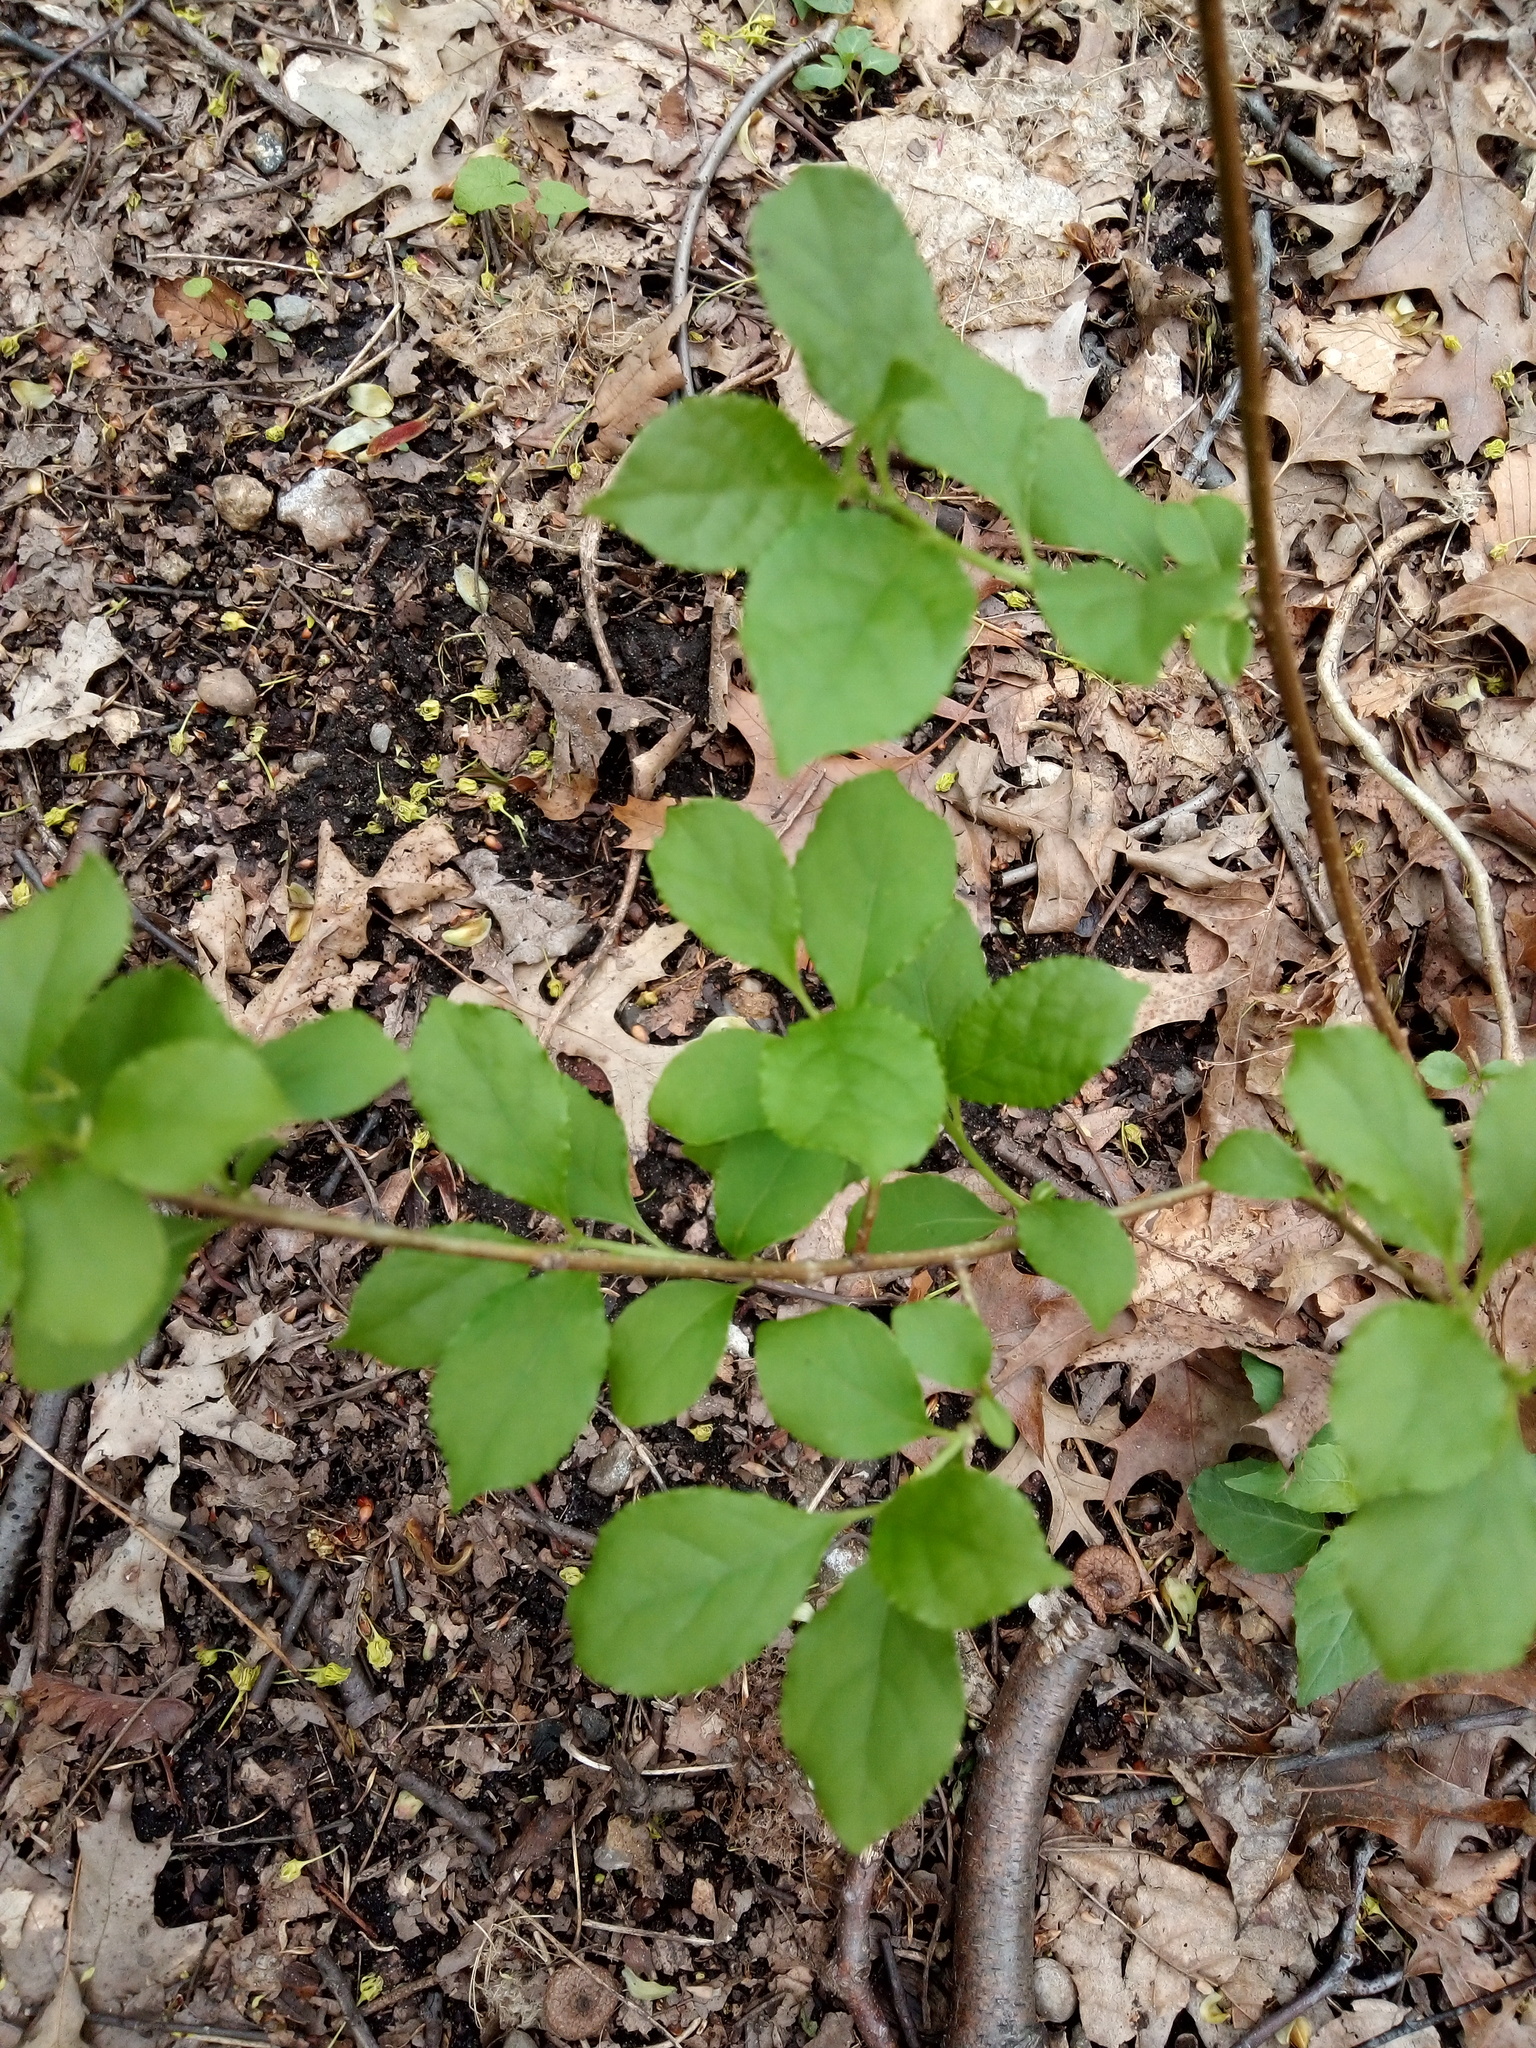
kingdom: Plantae
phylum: Tracheophyta
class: Magnoliopsida
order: Celastrales
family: Celastraceae
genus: Celastrus
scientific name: Celastrus orbiculatus
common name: Oriental bittersweet
